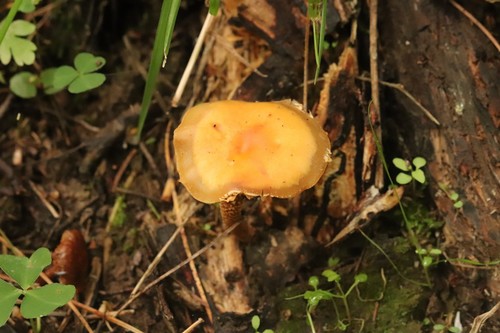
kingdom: Fungi
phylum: Basidiomycota
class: Agaricomycetes
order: Agaricales
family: Strophariaceae
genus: Kuehneromyces
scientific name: Kuehneromyces mutabilis
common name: Sheathed woodtuft
